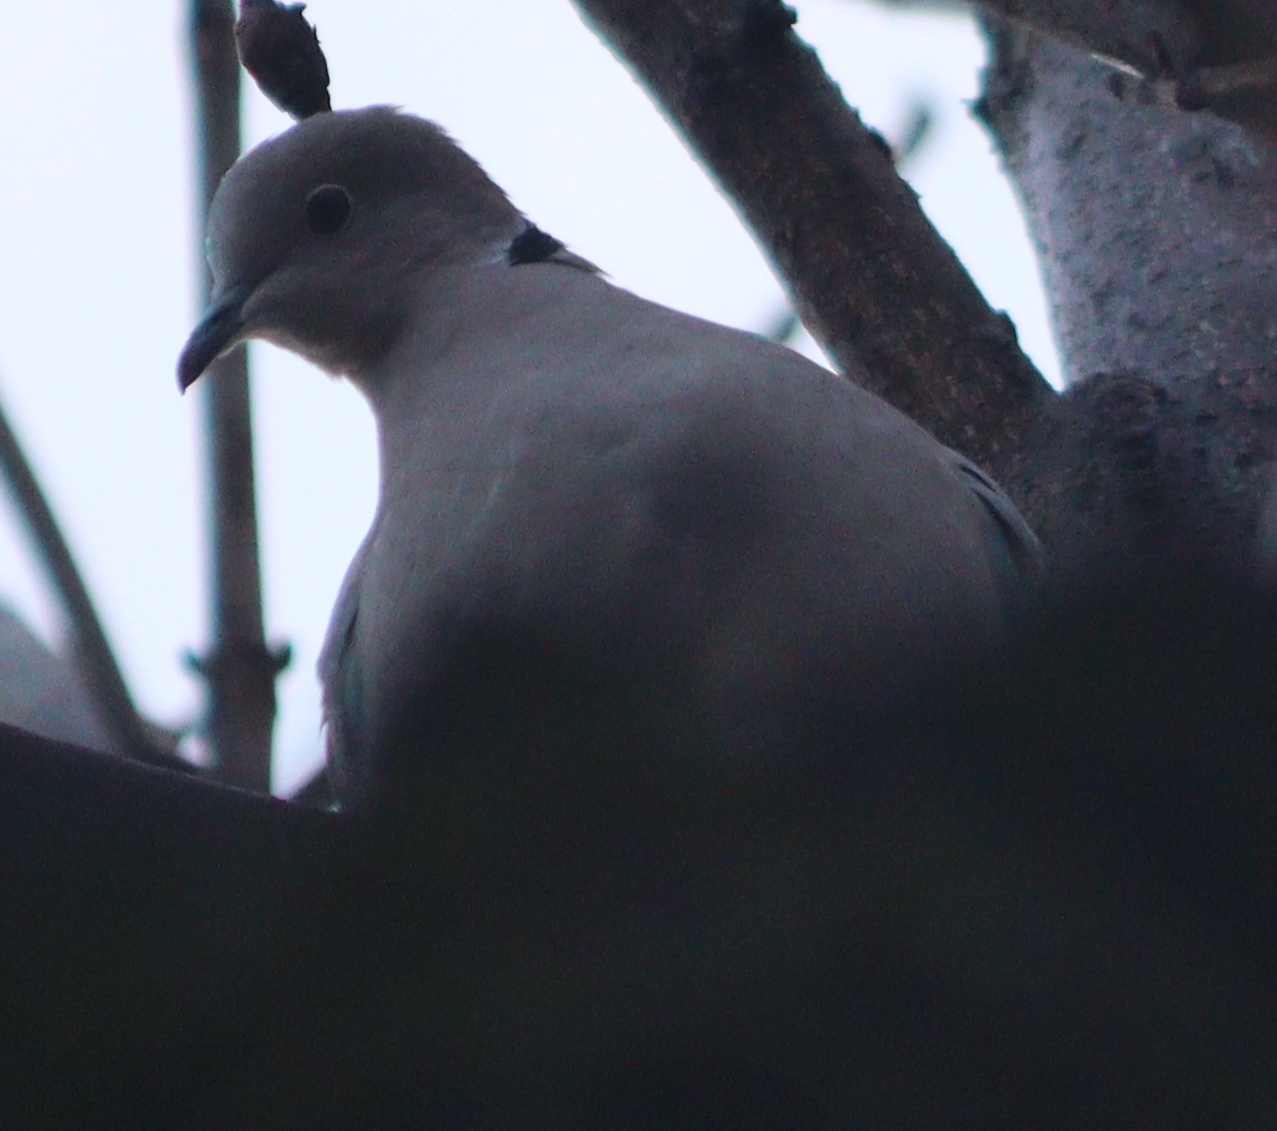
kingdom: Animalia
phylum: Chordata
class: Aves
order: Columbiformes
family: Columbidae
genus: Streptopelia
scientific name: Streptopelia decaocto
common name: Eurasian collared dove
